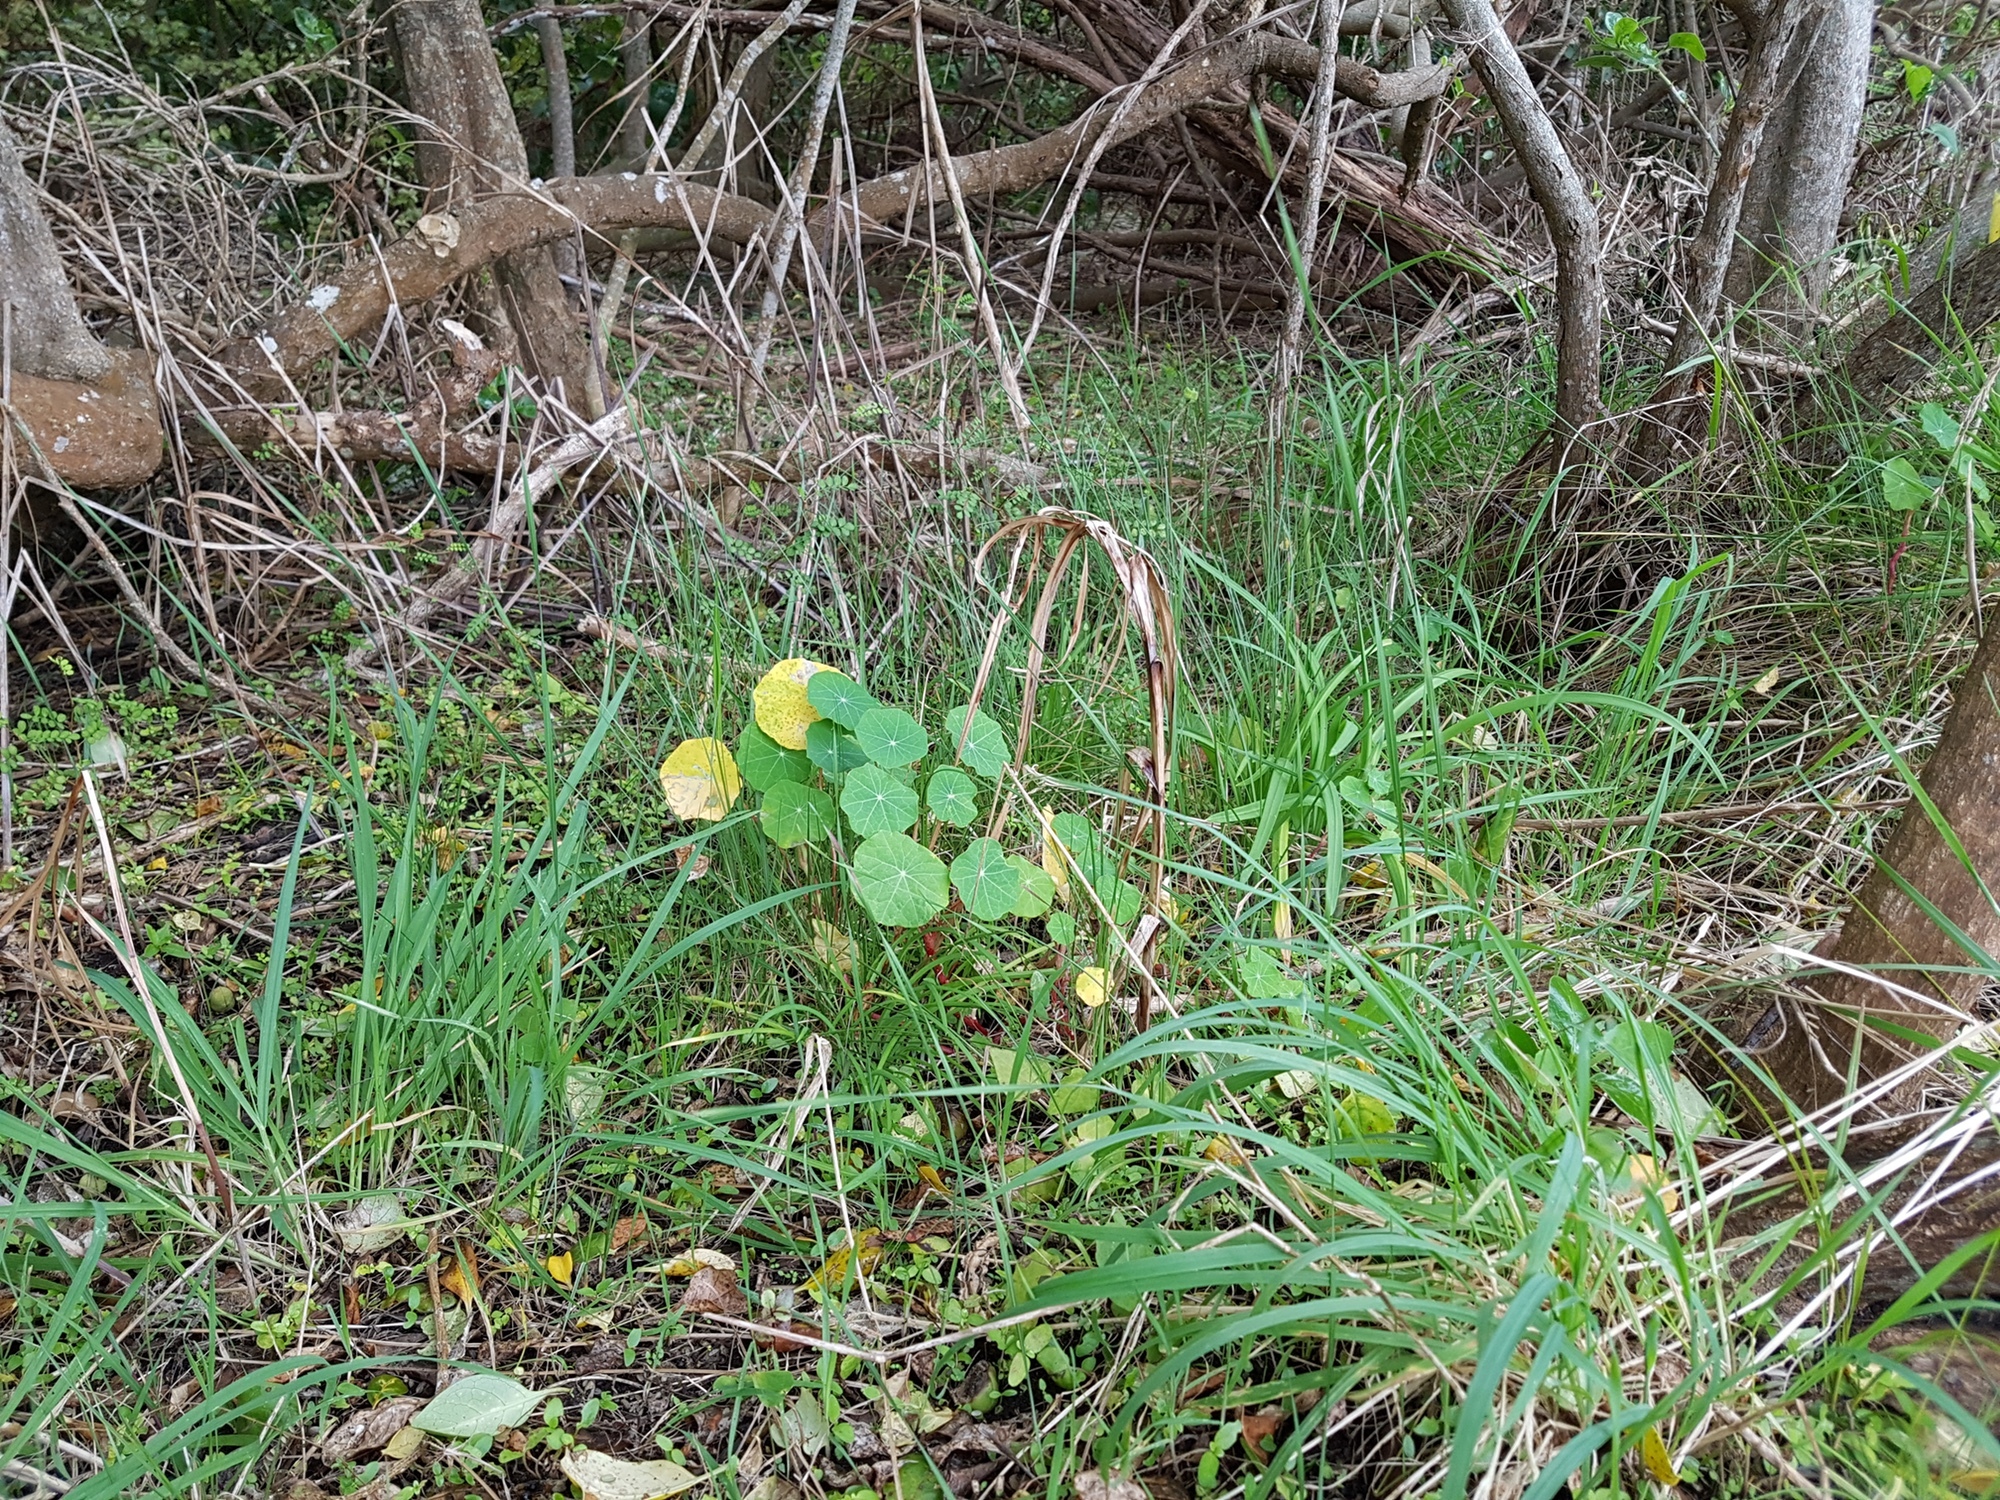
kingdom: Plantae
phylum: Tracheophyta
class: Magnoliopsida
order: Brassicales
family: Tropaeolaceae
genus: Tropaeolum
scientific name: Tropaeolum majus
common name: Nasturtium
